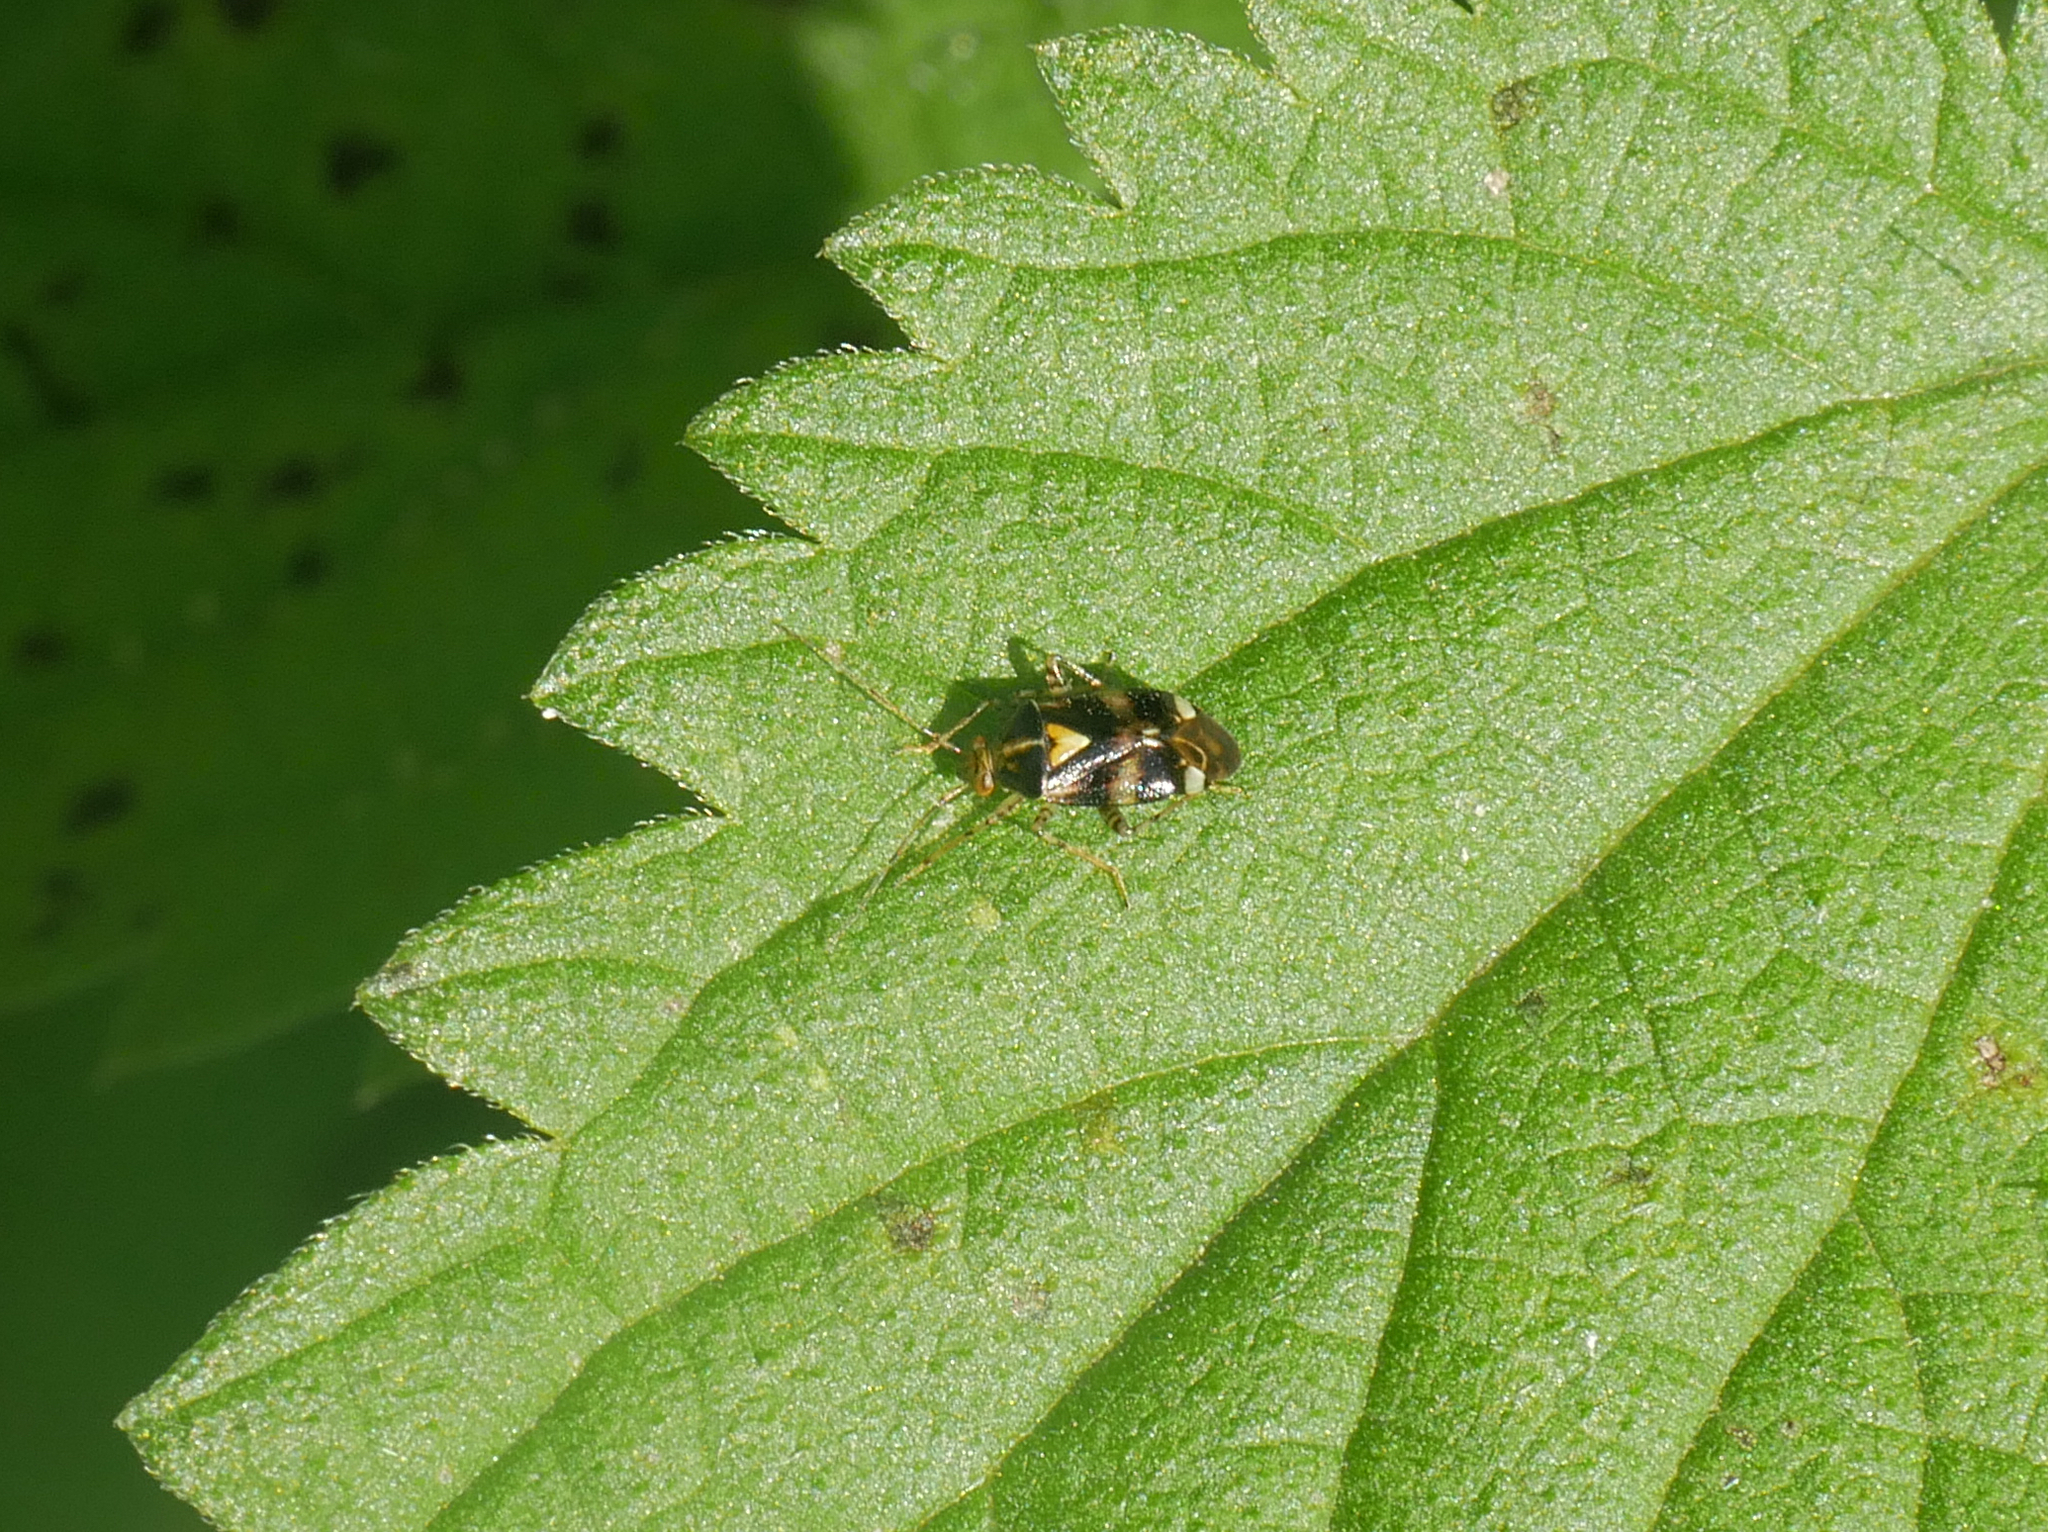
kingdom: Animalia
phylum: Arthropoda
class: Insecta
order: Hemiptera
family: Miridae
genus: Liocoris
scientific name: Liocoris tripustulatus
